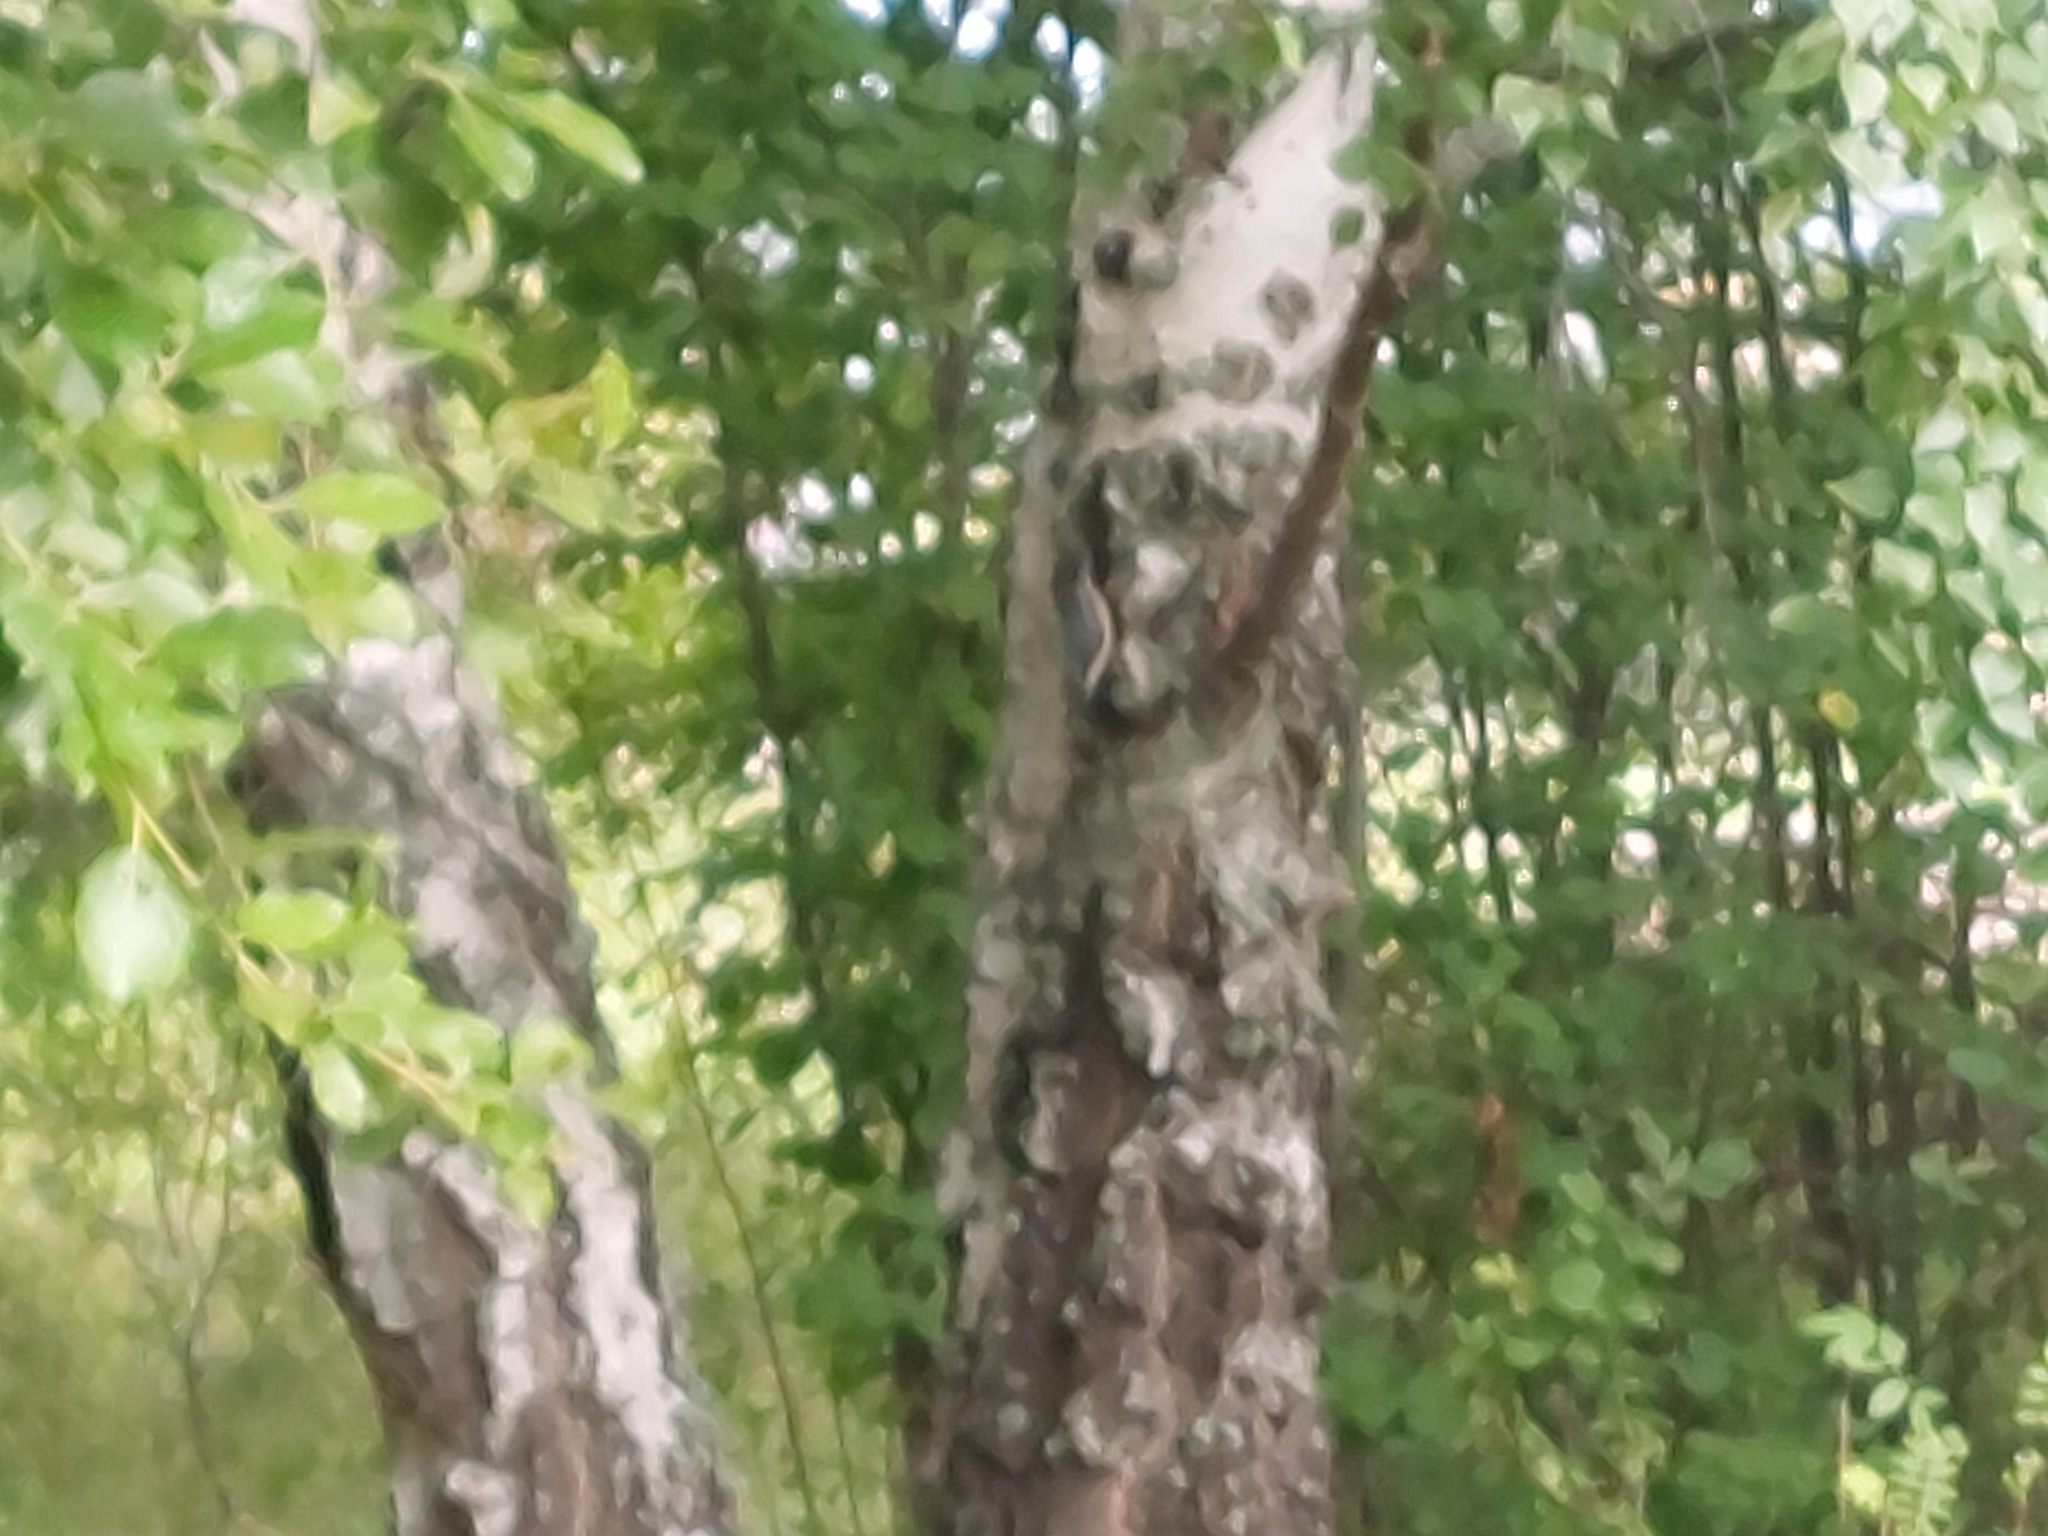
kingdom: Animalia
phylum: Chordata
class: Aves
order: Passeriformes
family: Sittidae
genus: Sitta
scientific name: Sitta europaea
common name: Eurasian nuthatch
